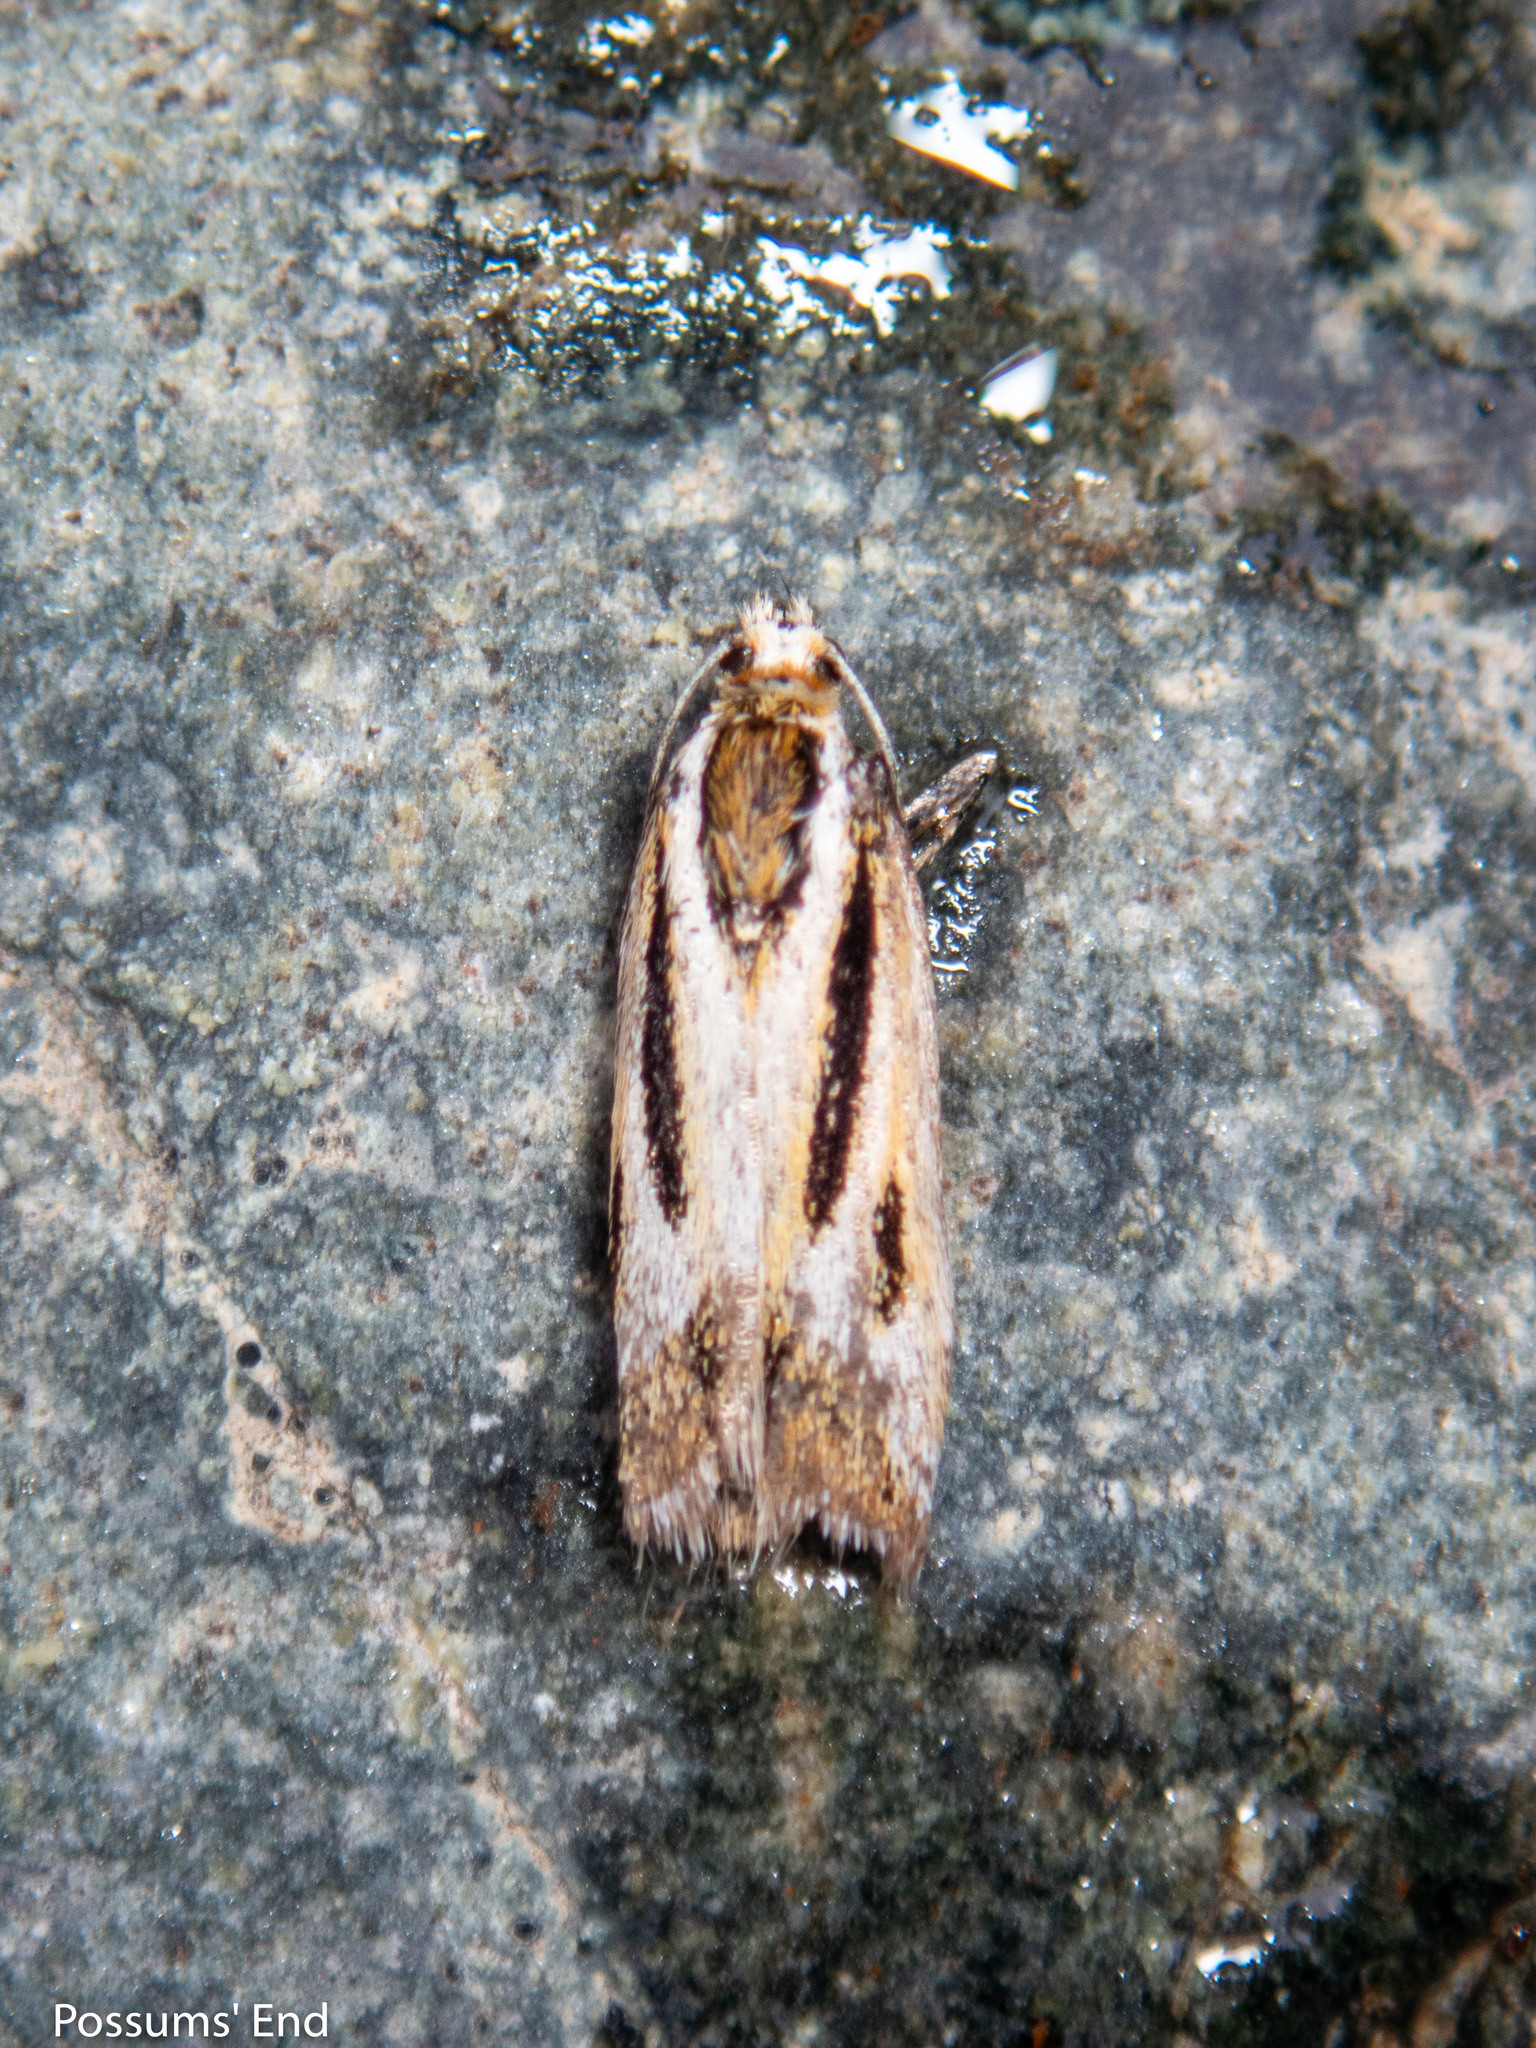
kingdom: Animalia
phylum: Arthropoda
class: Insecta
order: Lepidoptera
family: Crambidae
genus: Scoparia
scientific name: Scoparia subitus
